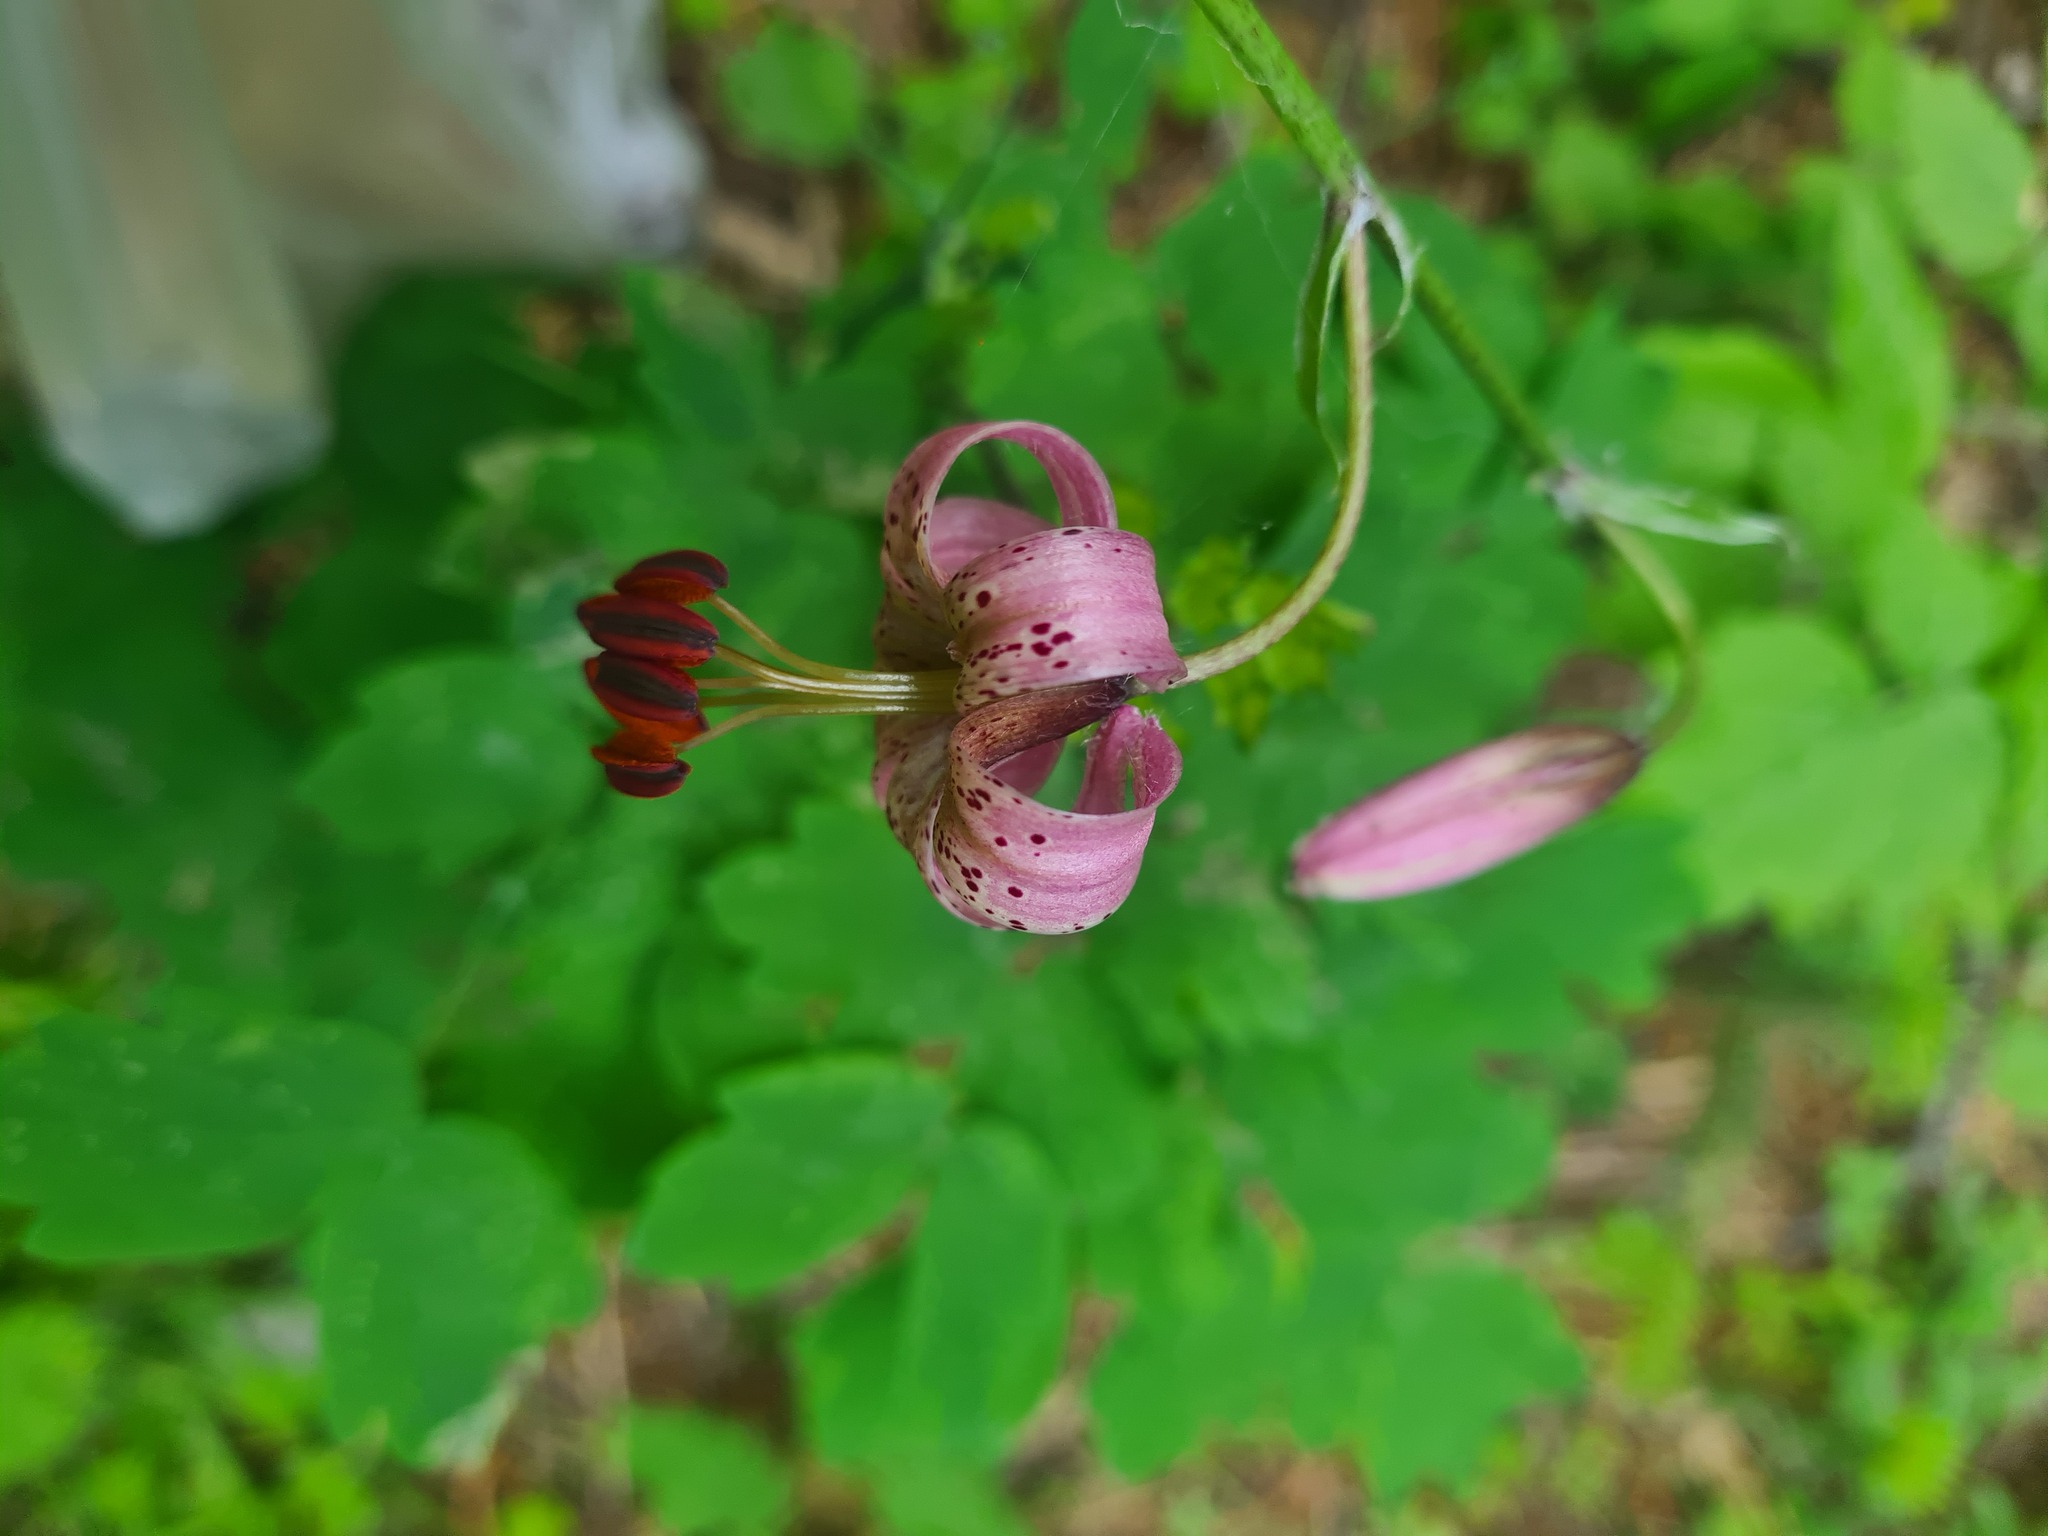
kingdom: Plantae
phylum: Tracheophyta
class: Liliopsida
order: Liliales
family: Liliaceae
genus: Lilium
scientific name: Lilium martagon
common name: Martagon lily
